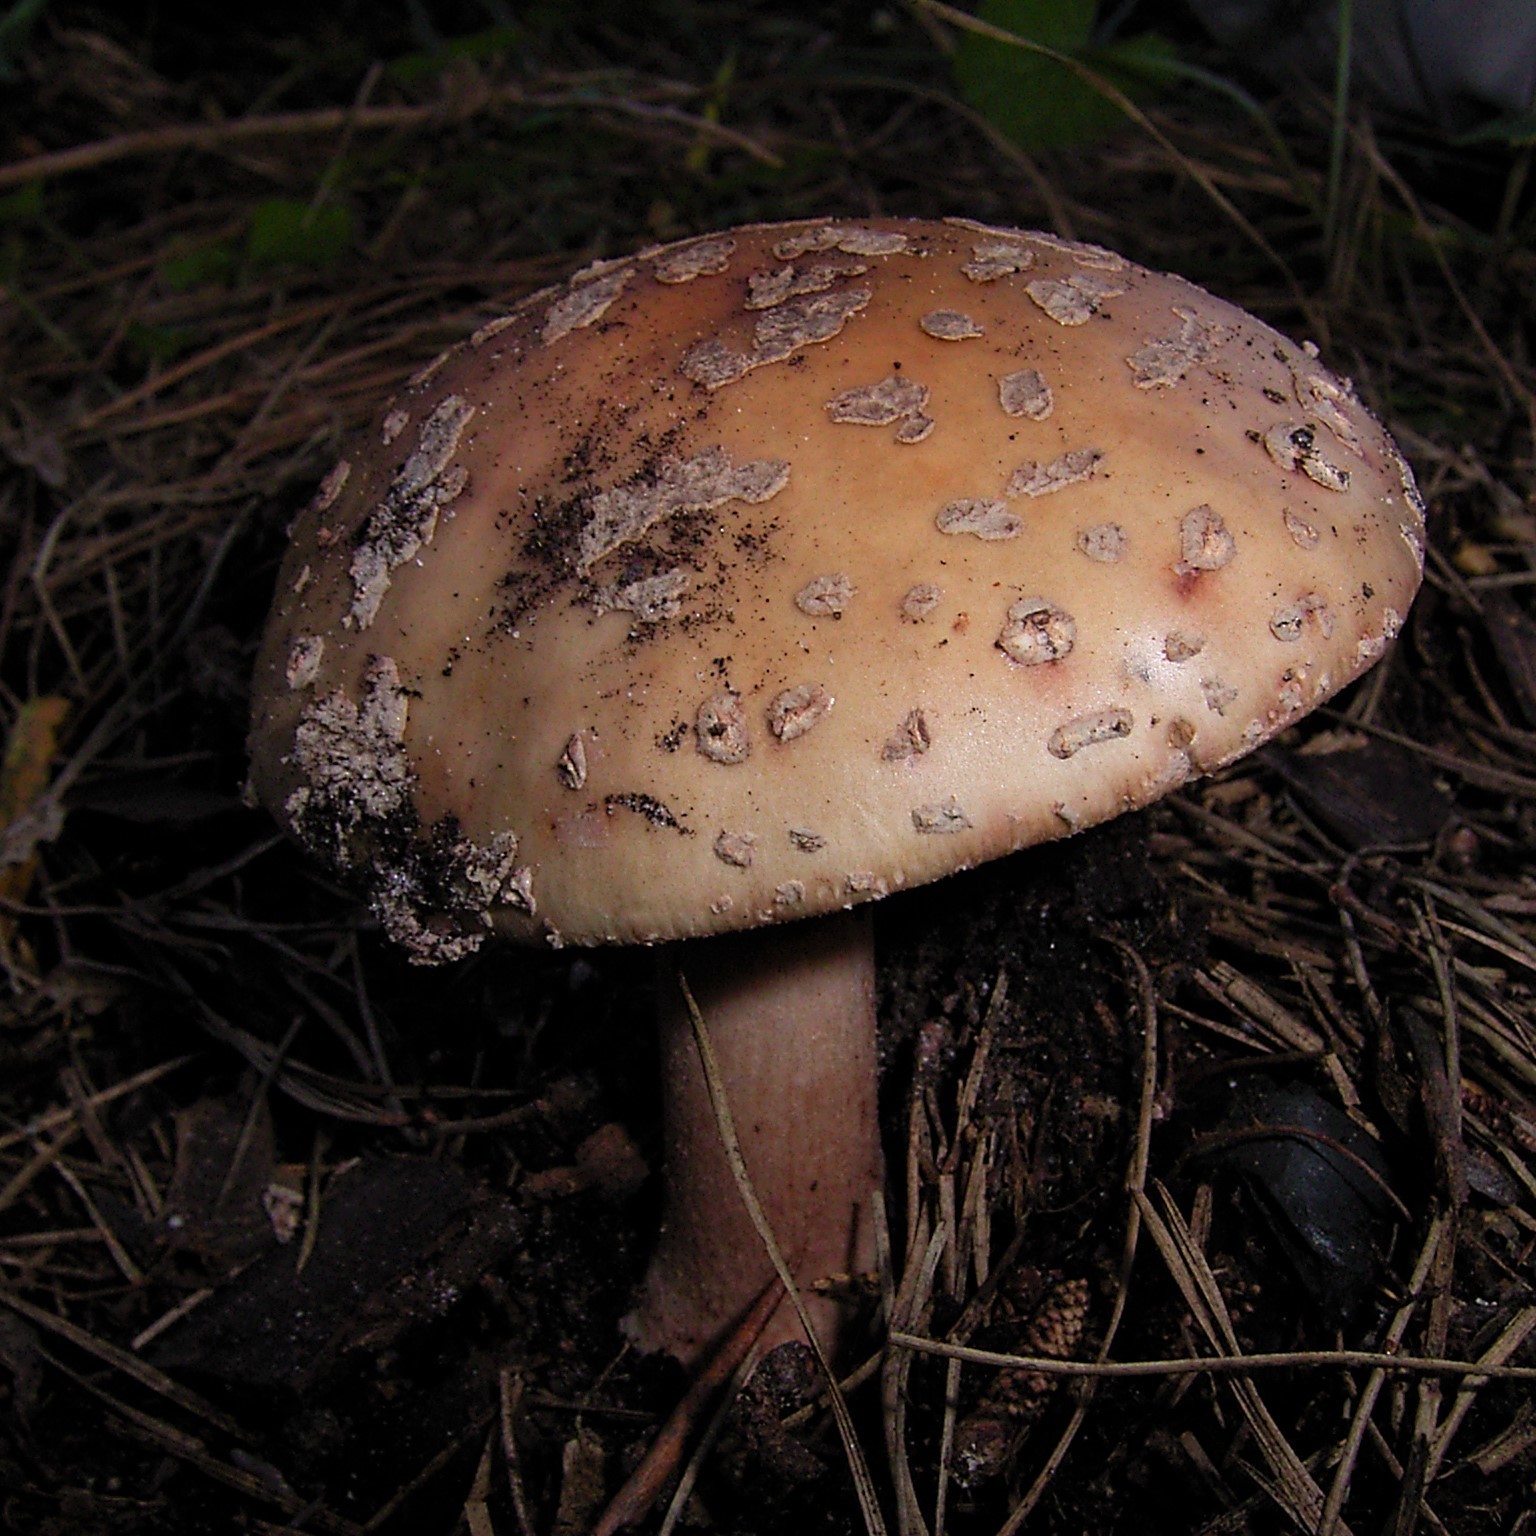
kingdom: Fungi
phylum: Basidiomycota
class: Agaricomycetes
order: Agaricales
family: Amanitaceae
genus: Amanita
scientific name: Amanita rubescens
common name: Blusher
